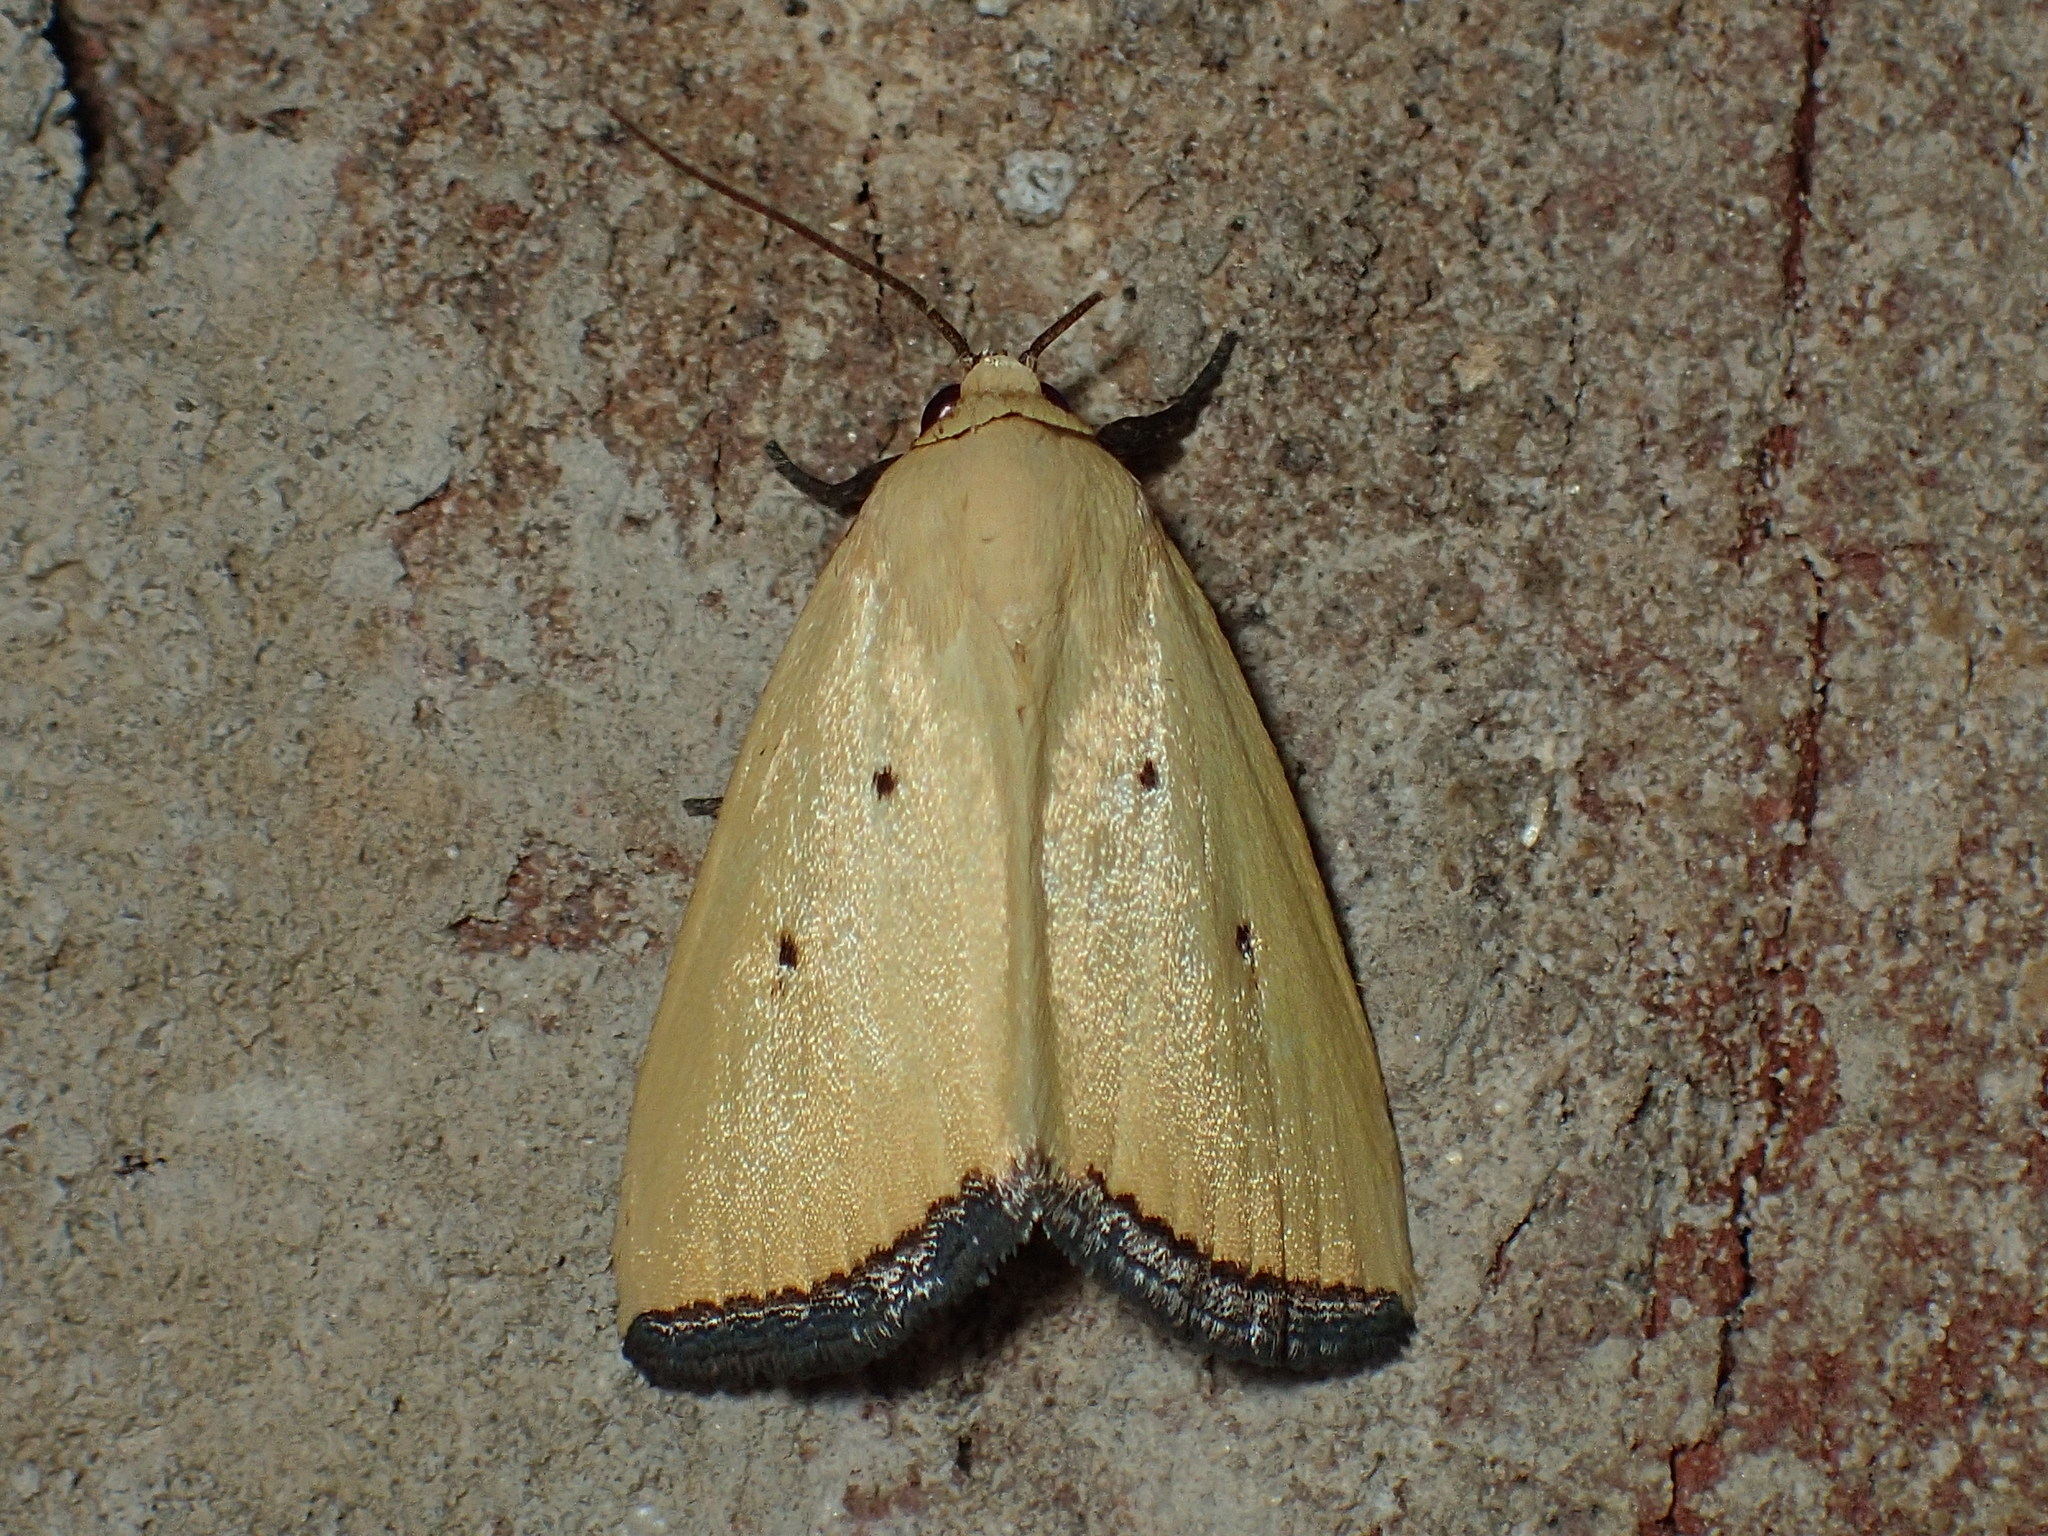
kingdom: Animalia
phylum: Arthropoda
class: Insecta
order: Lepidoptera
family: Noctuidae
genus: Marimatha
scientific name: Marimatha nigrofimbria
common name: Black-bordered lemon moth
